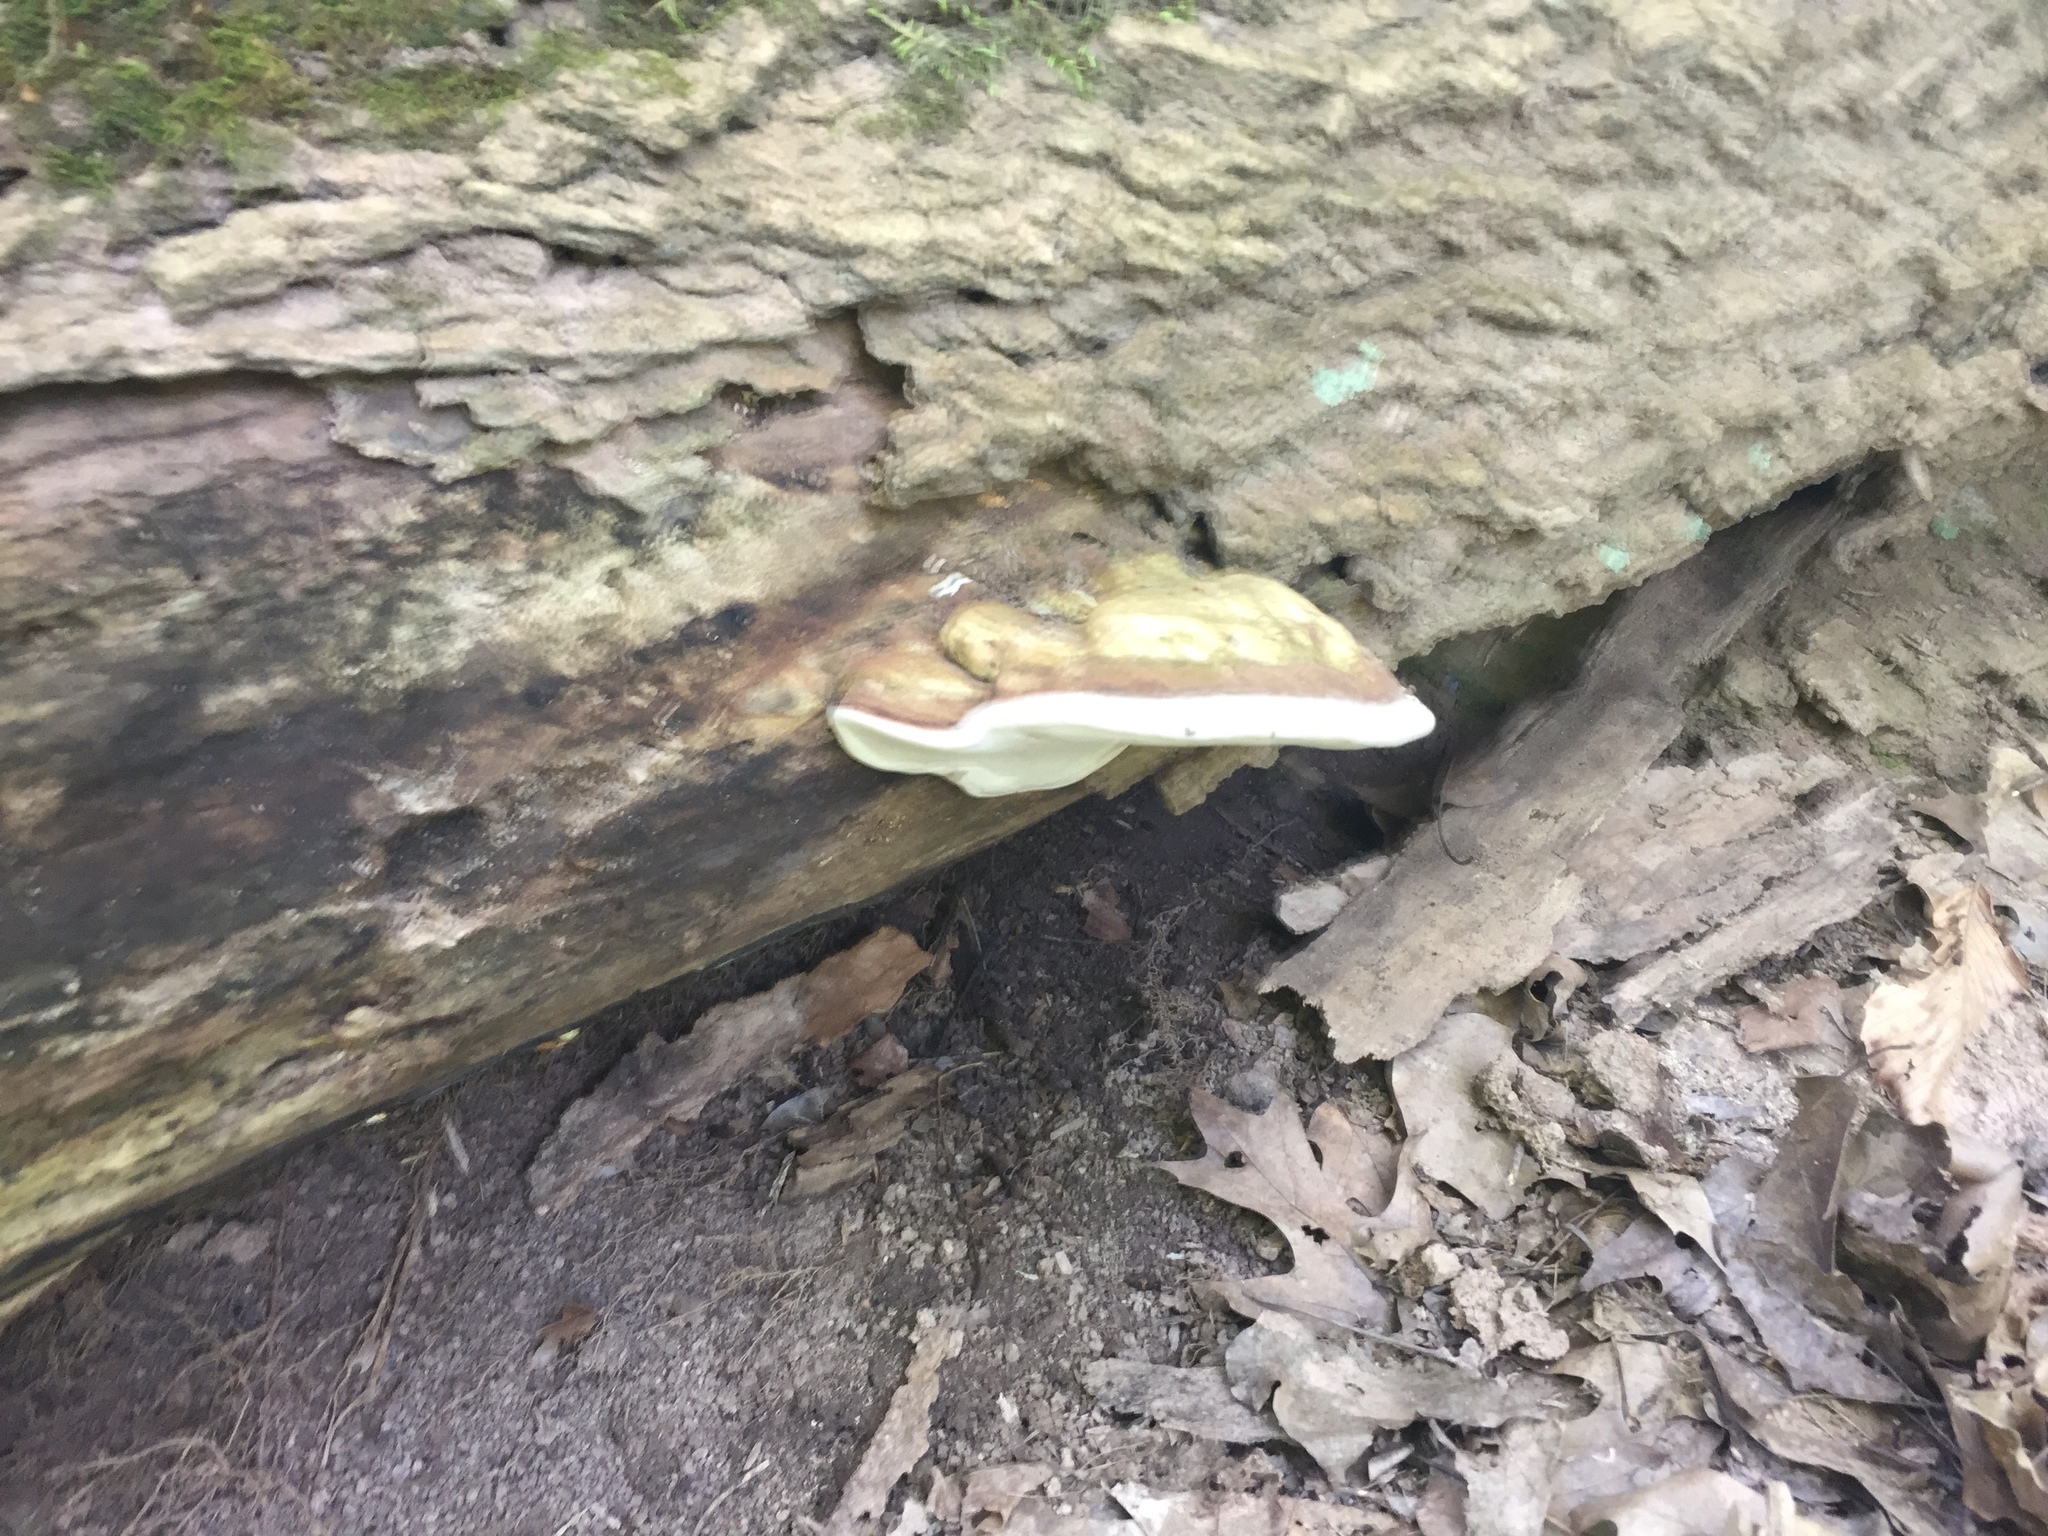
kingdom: Fungi
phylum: Basidiomycota
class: Agaricomycetes
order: Polyporales
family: Polyporaceae
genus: Ganoderma
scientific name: Ganoderma applanatum
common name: Artist's bracket
